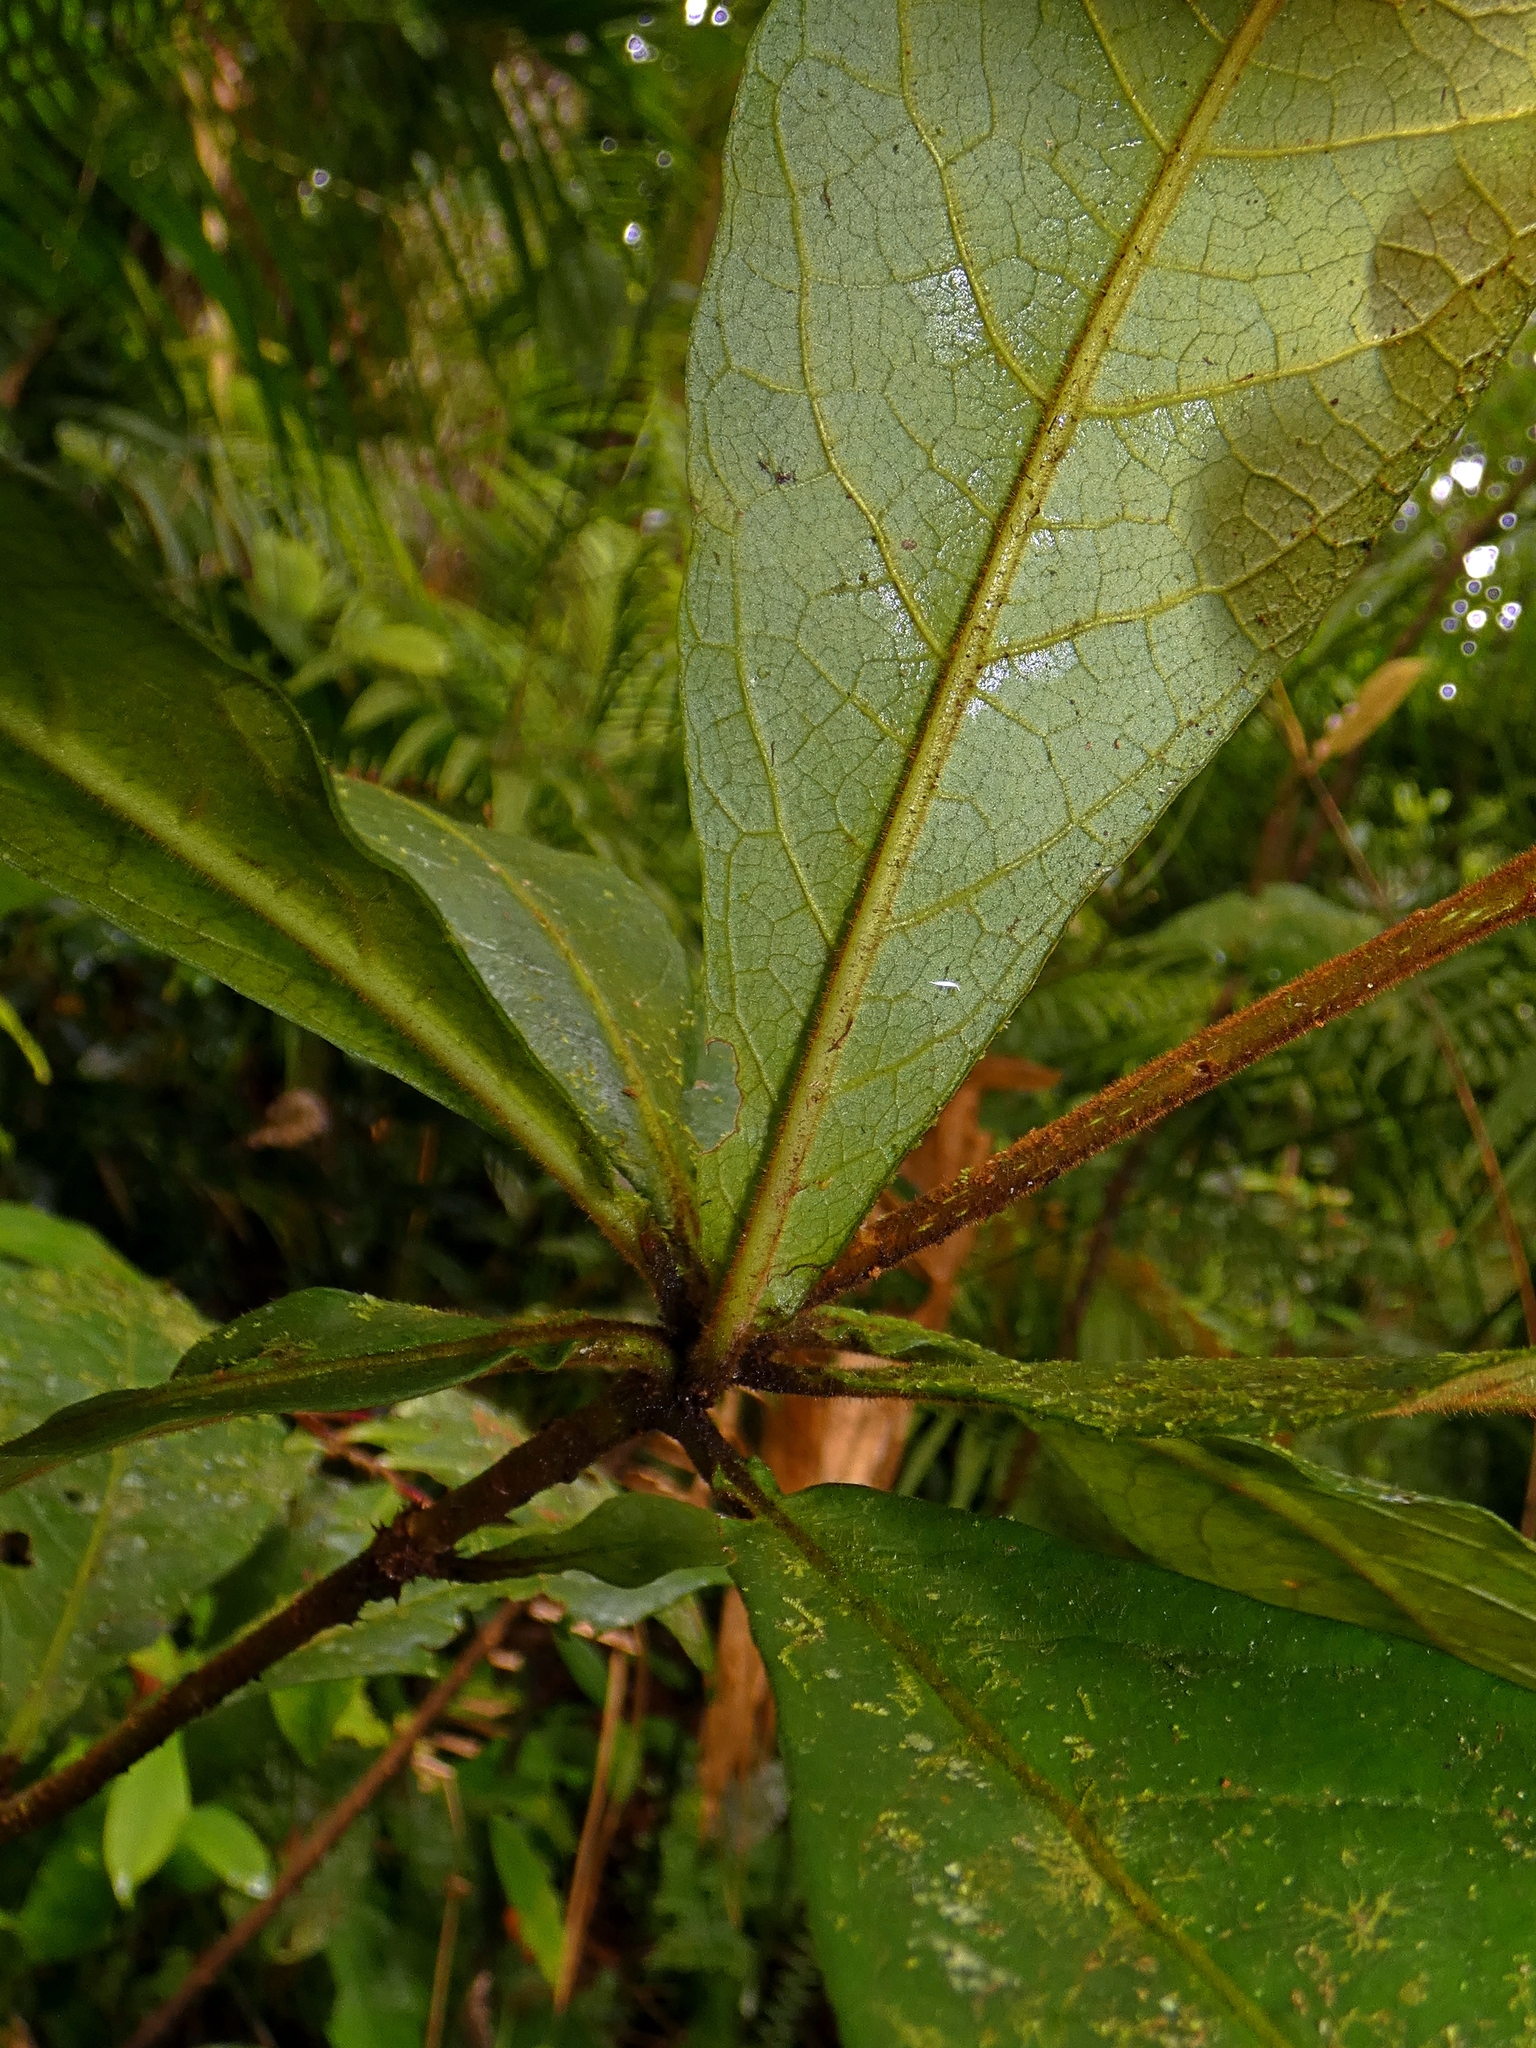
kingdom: Plantae
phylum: Tracheophyta
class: Magnoliopsida
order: Apiales
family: Pittosporaceae
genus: Pittosporum
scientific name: Pittosporum rubiginosum
